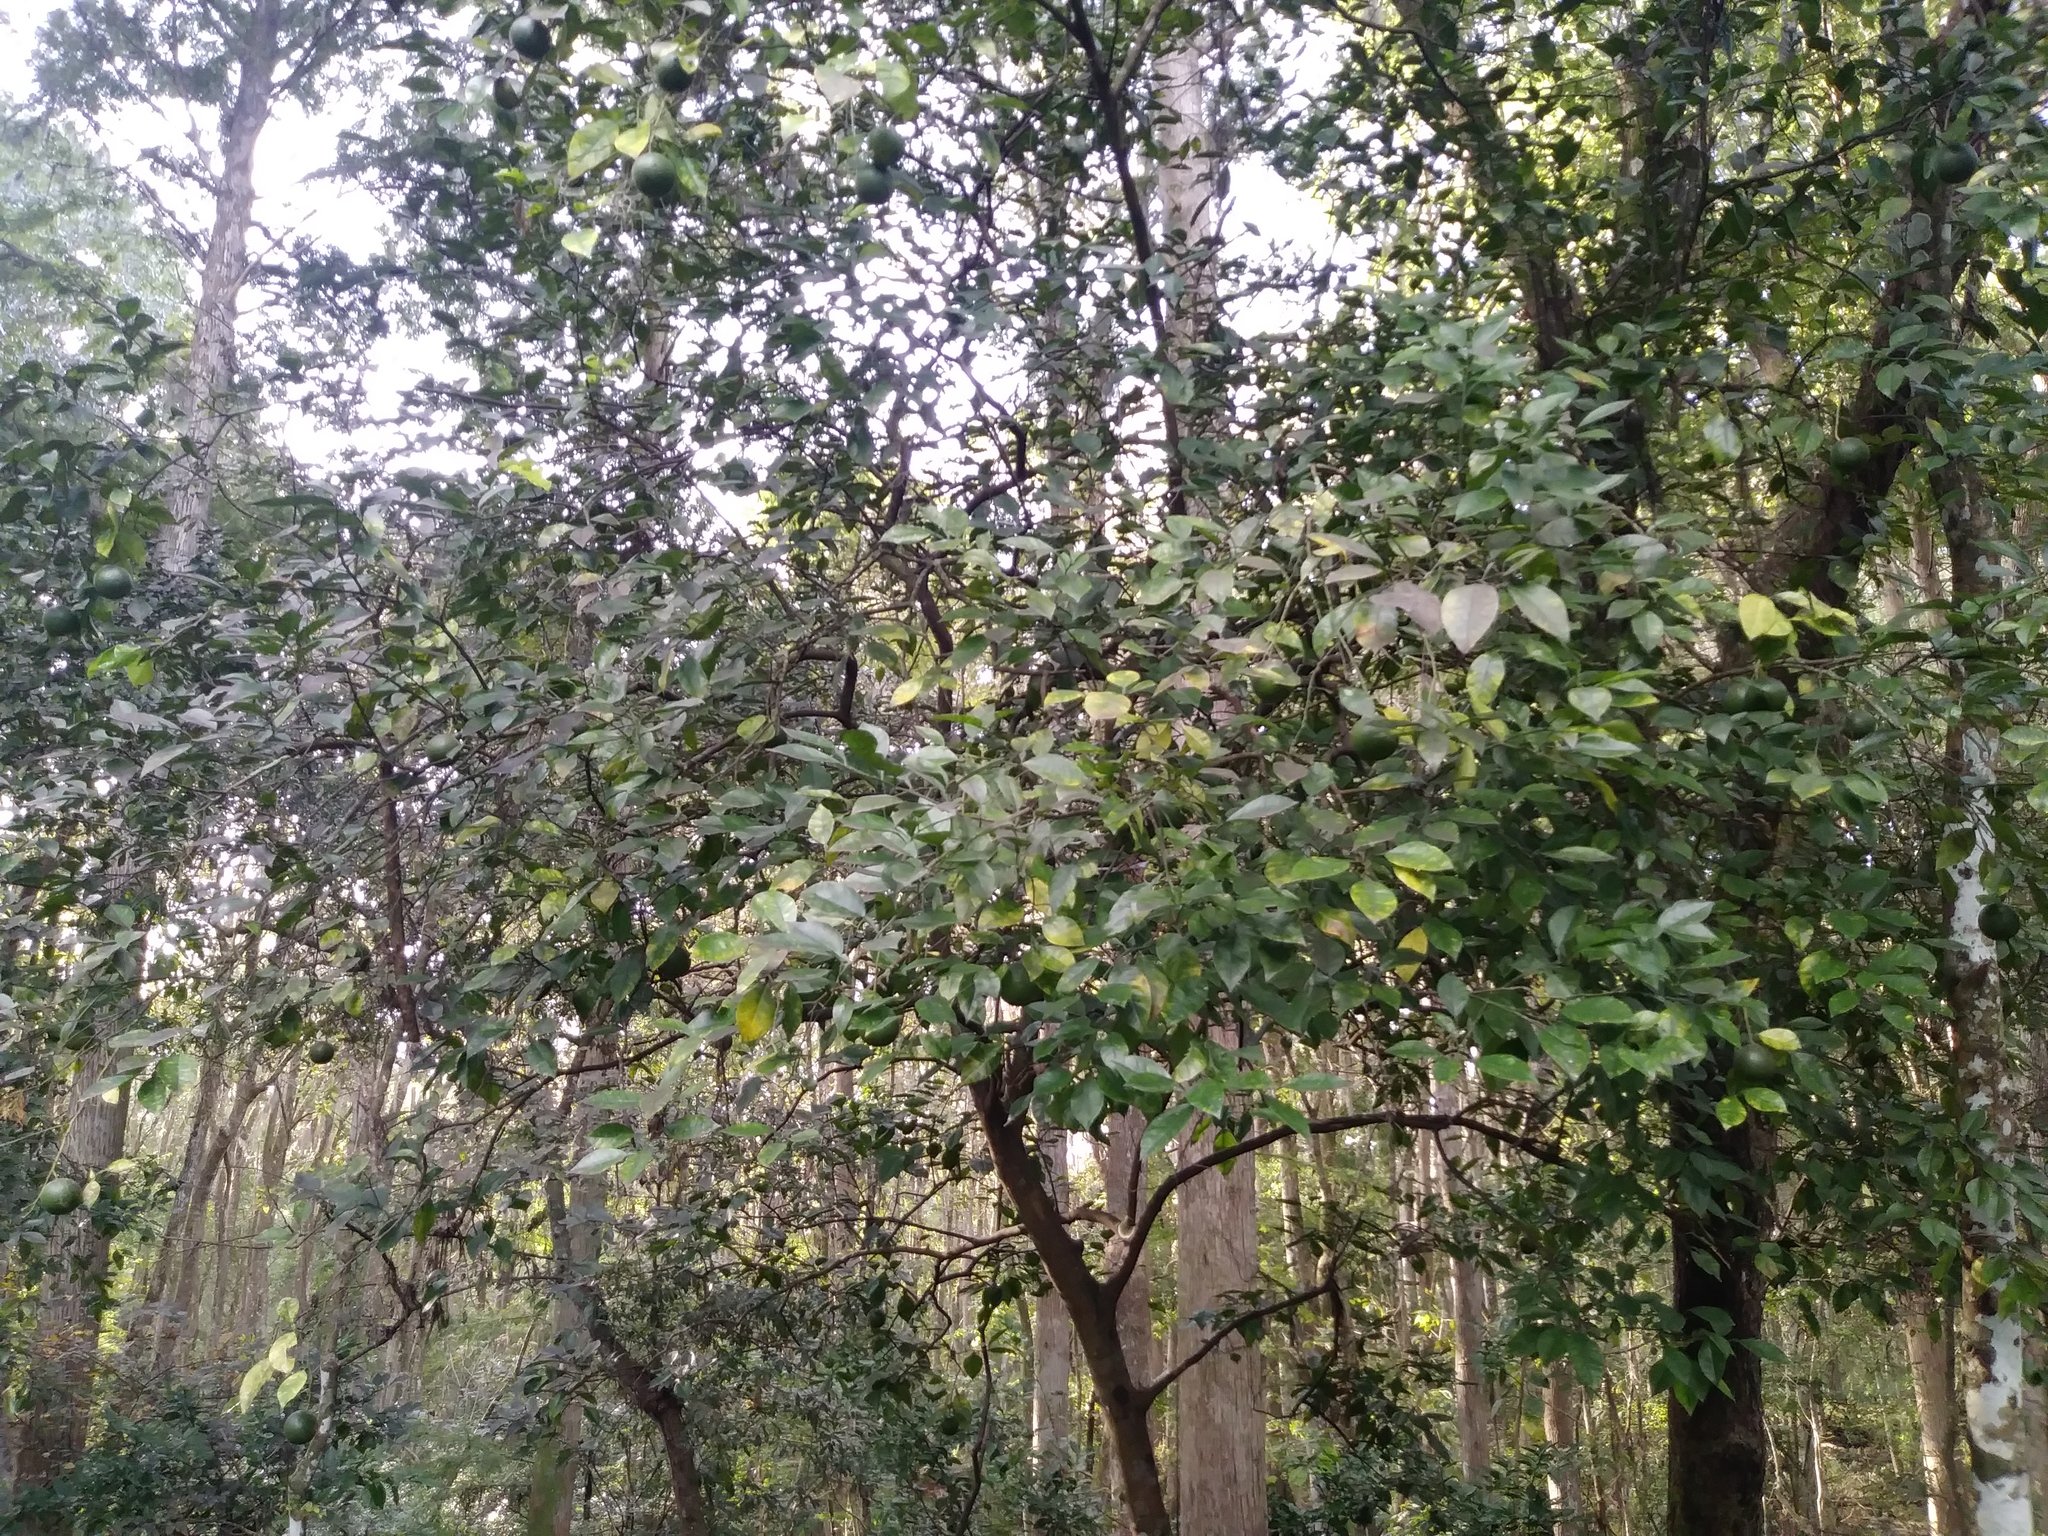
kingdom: Plantae
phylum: Tracheophyta
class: Magnoliopsida
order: Sapindales
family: Rutaceae
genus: Citrus
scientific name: Citrus aurantium
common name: Sour orange
